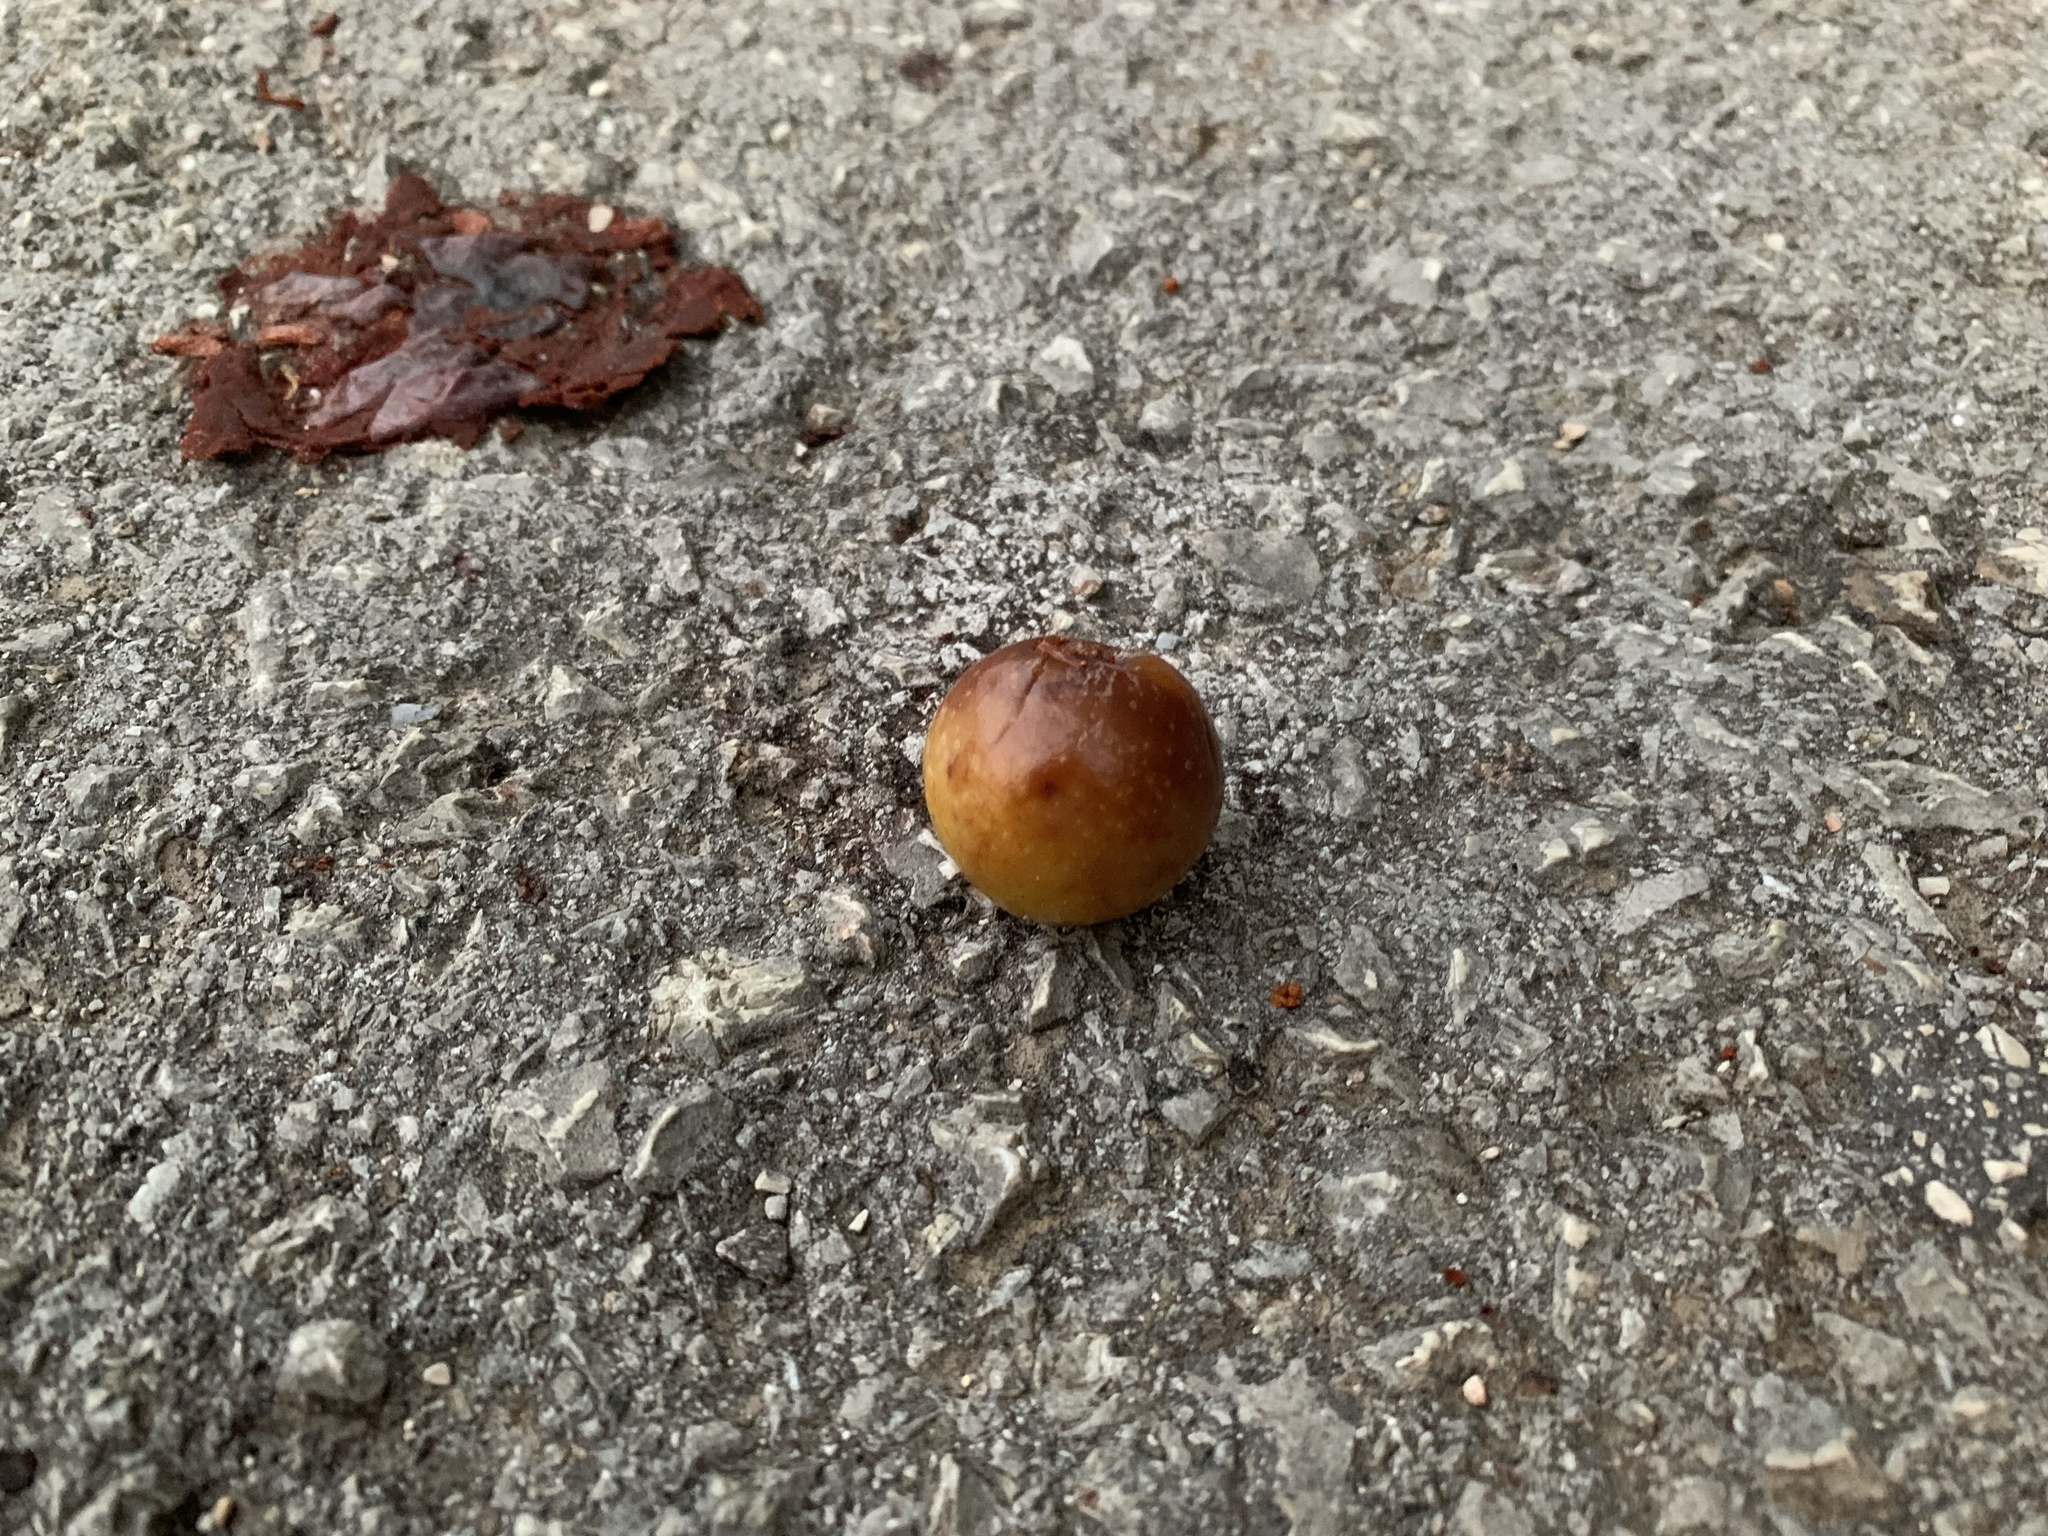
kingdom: Plantae
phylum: Tracheophyta
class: Magnoliopsida
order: Rosales
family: Rosaceae
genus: Cormus
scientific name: Cormus domestica
